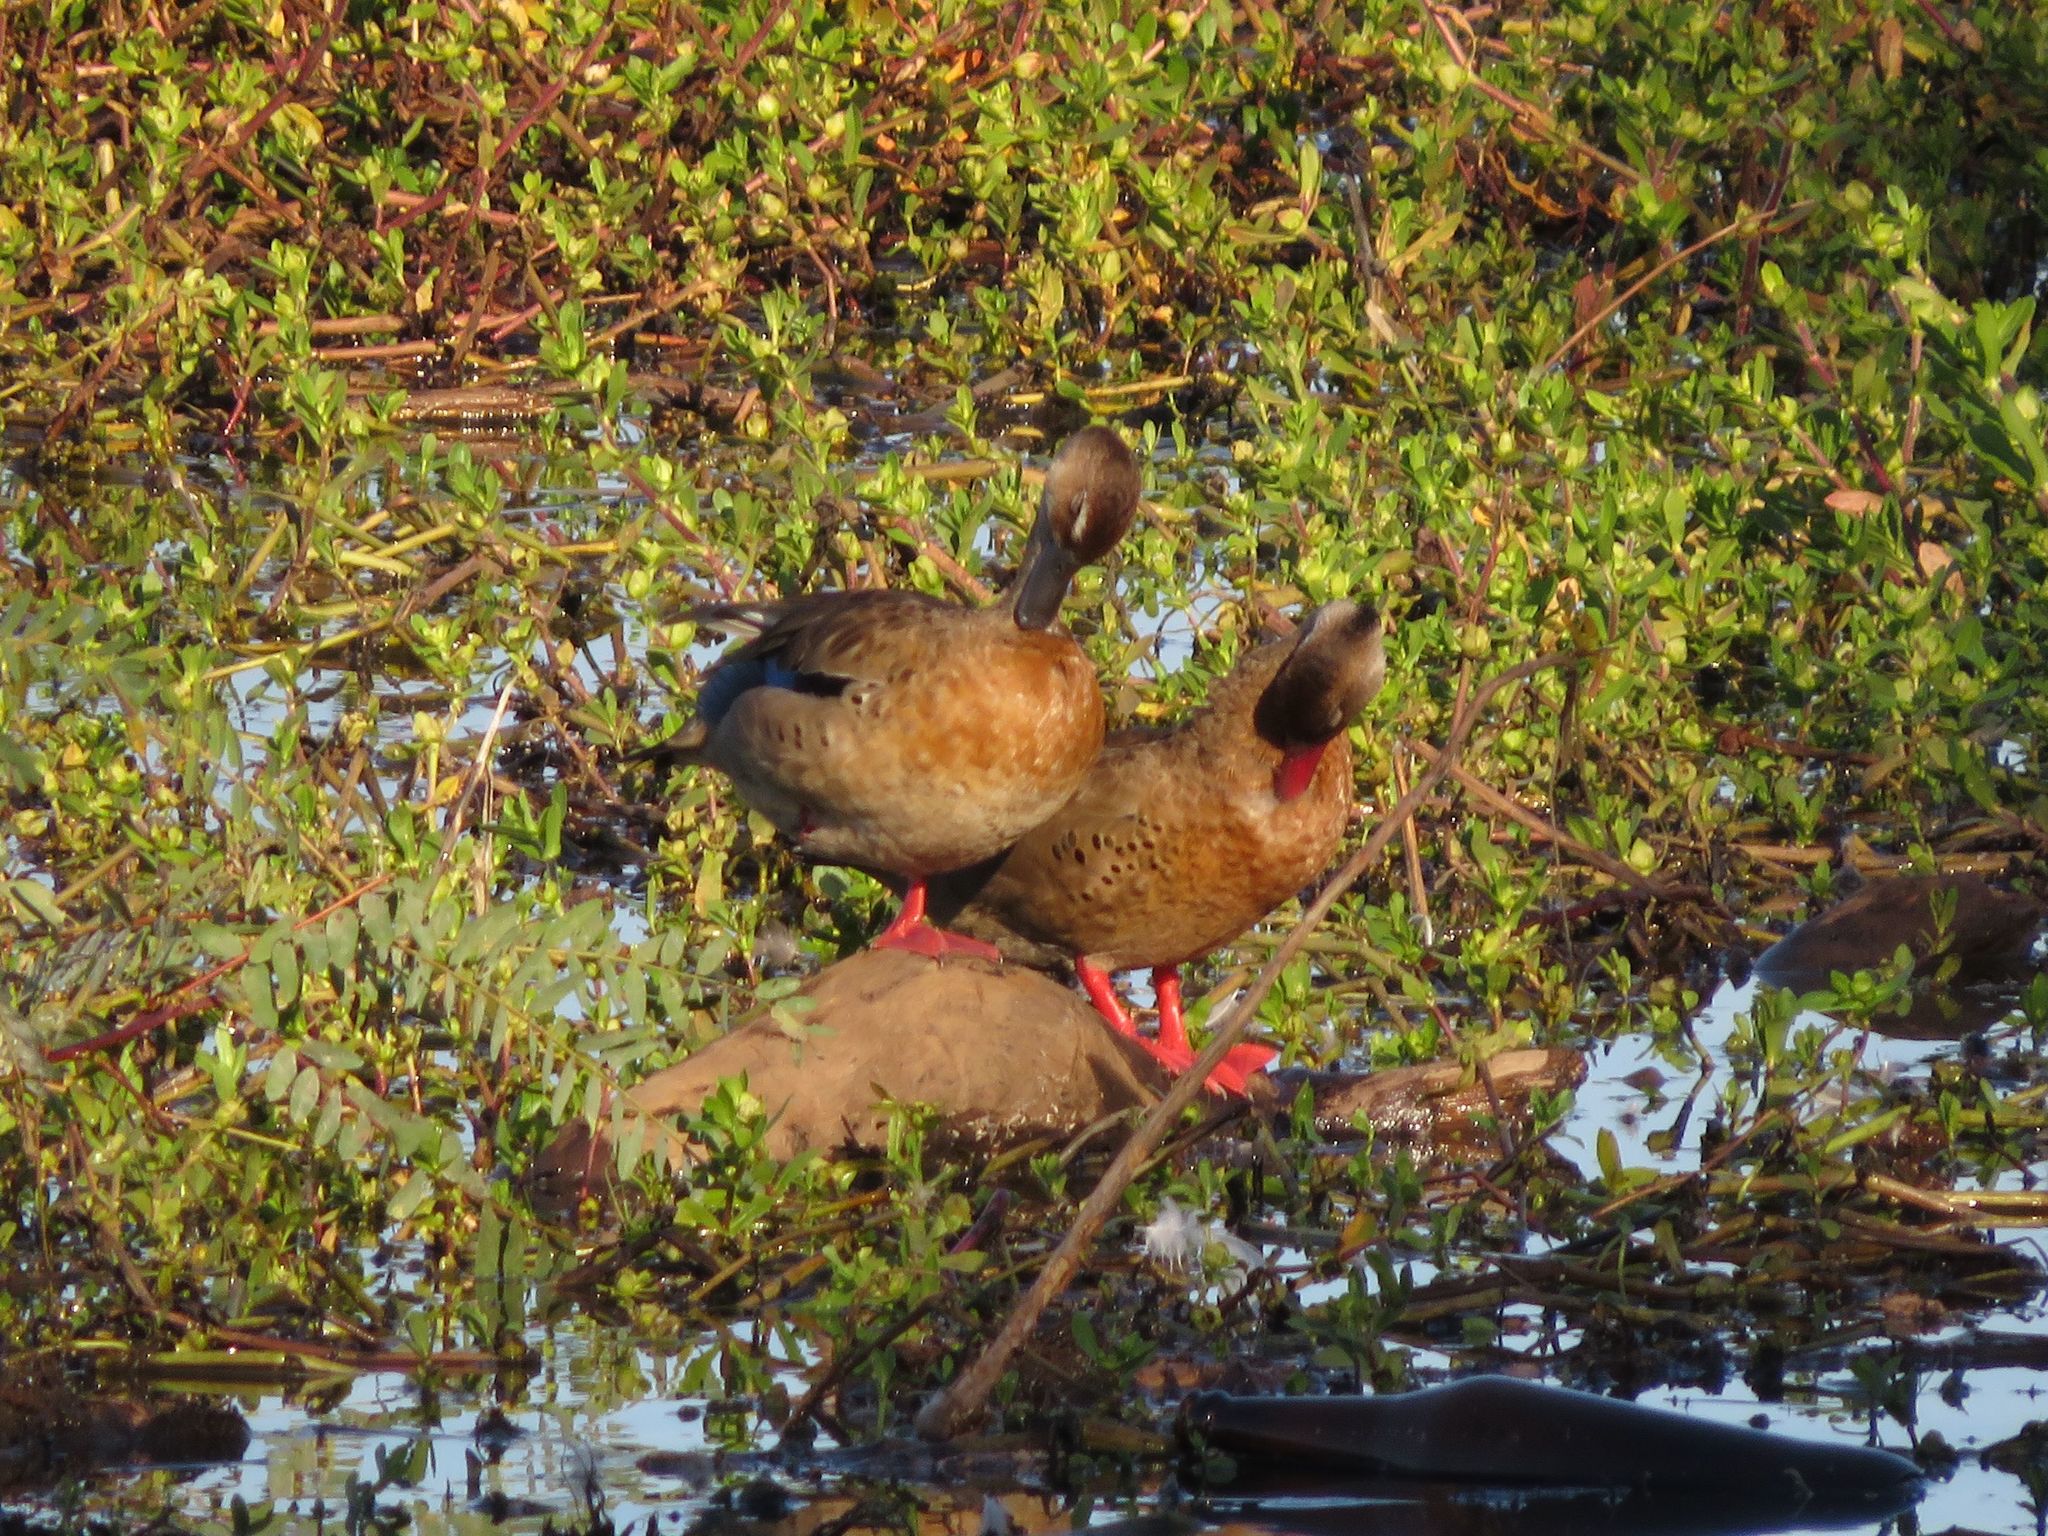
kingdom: Animalia
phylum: Chordata
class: Aves
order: Anseriformes
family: Anatidae
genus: Amazonetta
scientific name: Amazonetta brasiliensis
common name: Brazilian teal
